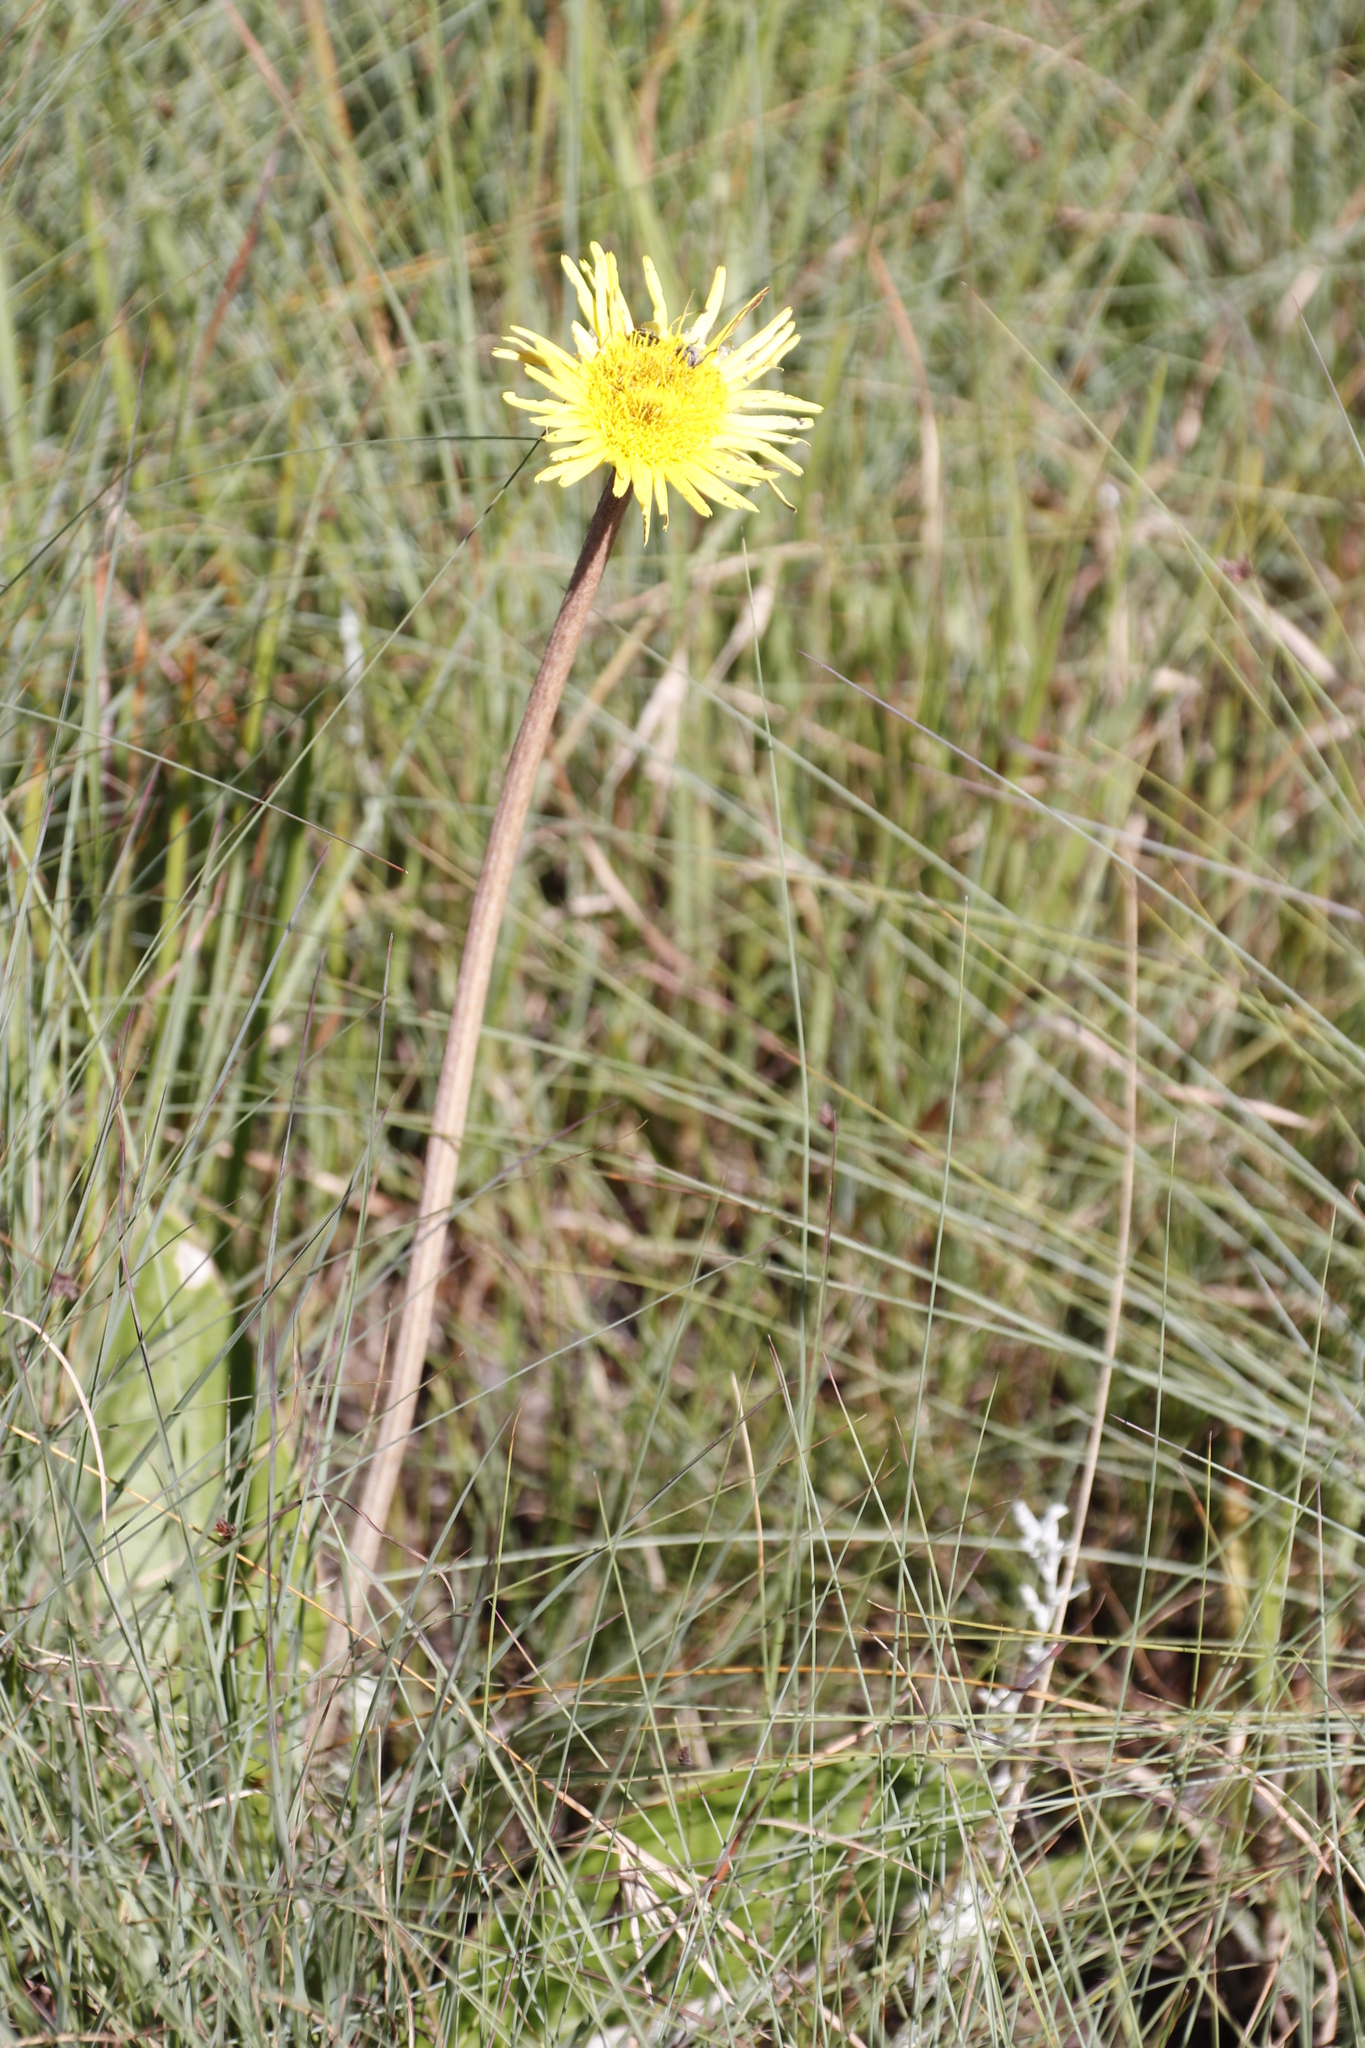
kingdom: Plantae
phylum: Tracheophyta
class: Magnoliopsida
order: Asterales
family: Asteraceae
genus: Haplocarpha
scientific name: Haplocarpha scaposa
